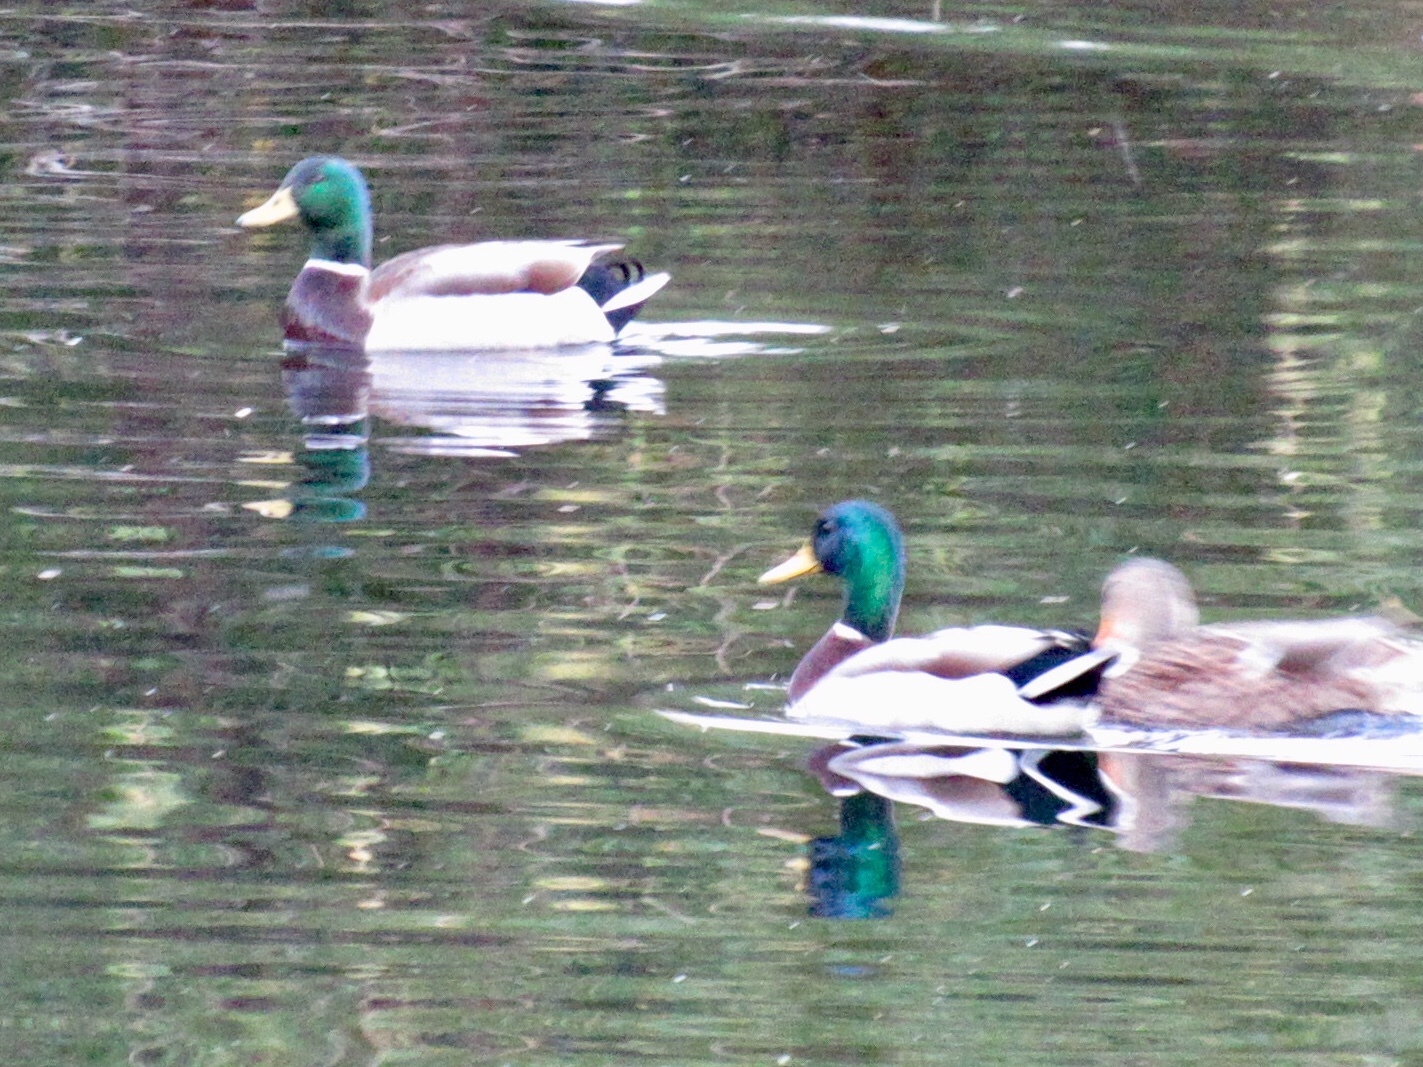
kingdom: Animalia
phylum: Chordata
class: Aves
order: Anseriformes
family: Anatidae
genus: Anas
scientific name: Anas platyrhynchos
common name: Mallard
